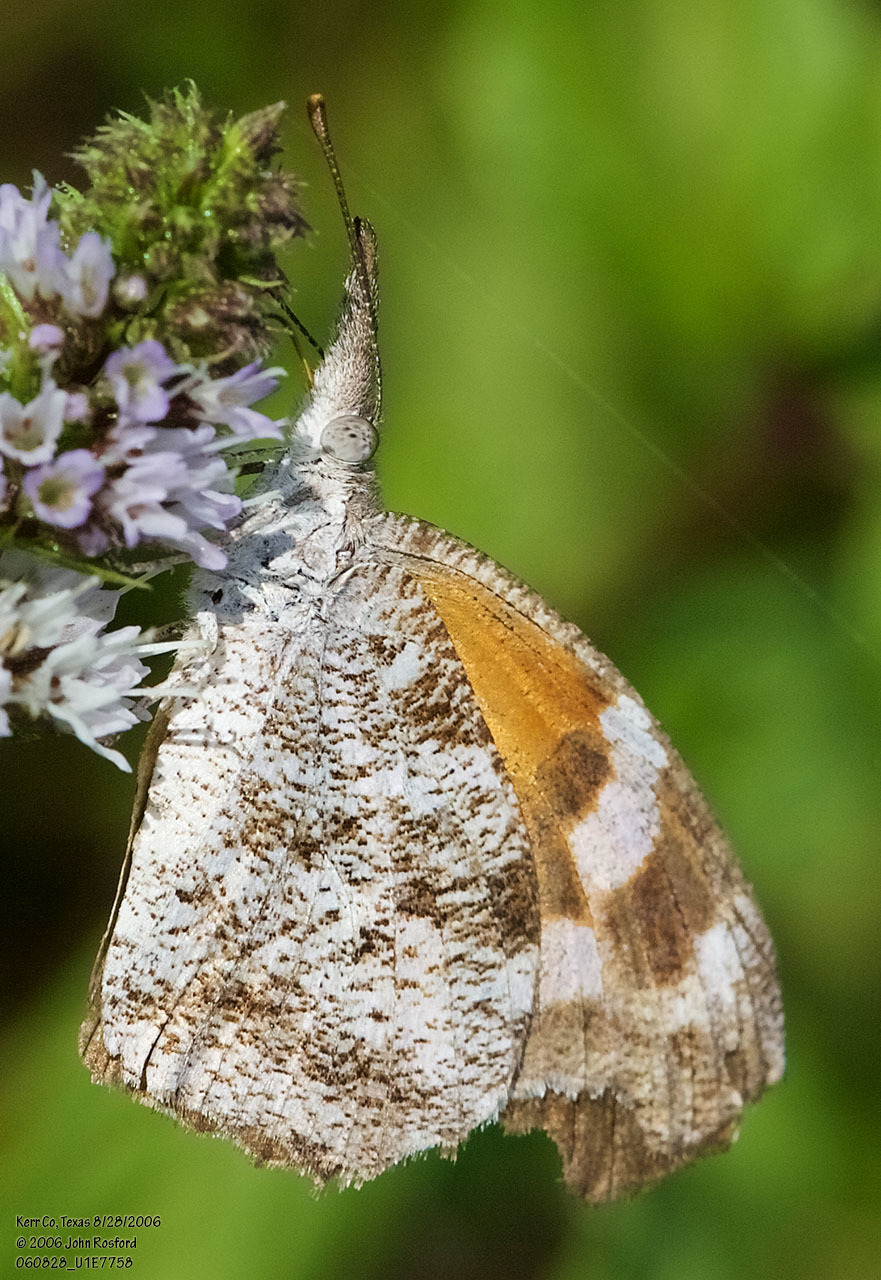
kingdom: Animalia
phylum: Arthropoda
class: Insecta
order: Lepidoptera
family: Nymphalidae
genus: Libytheana
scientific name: Libytheana carinenta
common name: American snout
